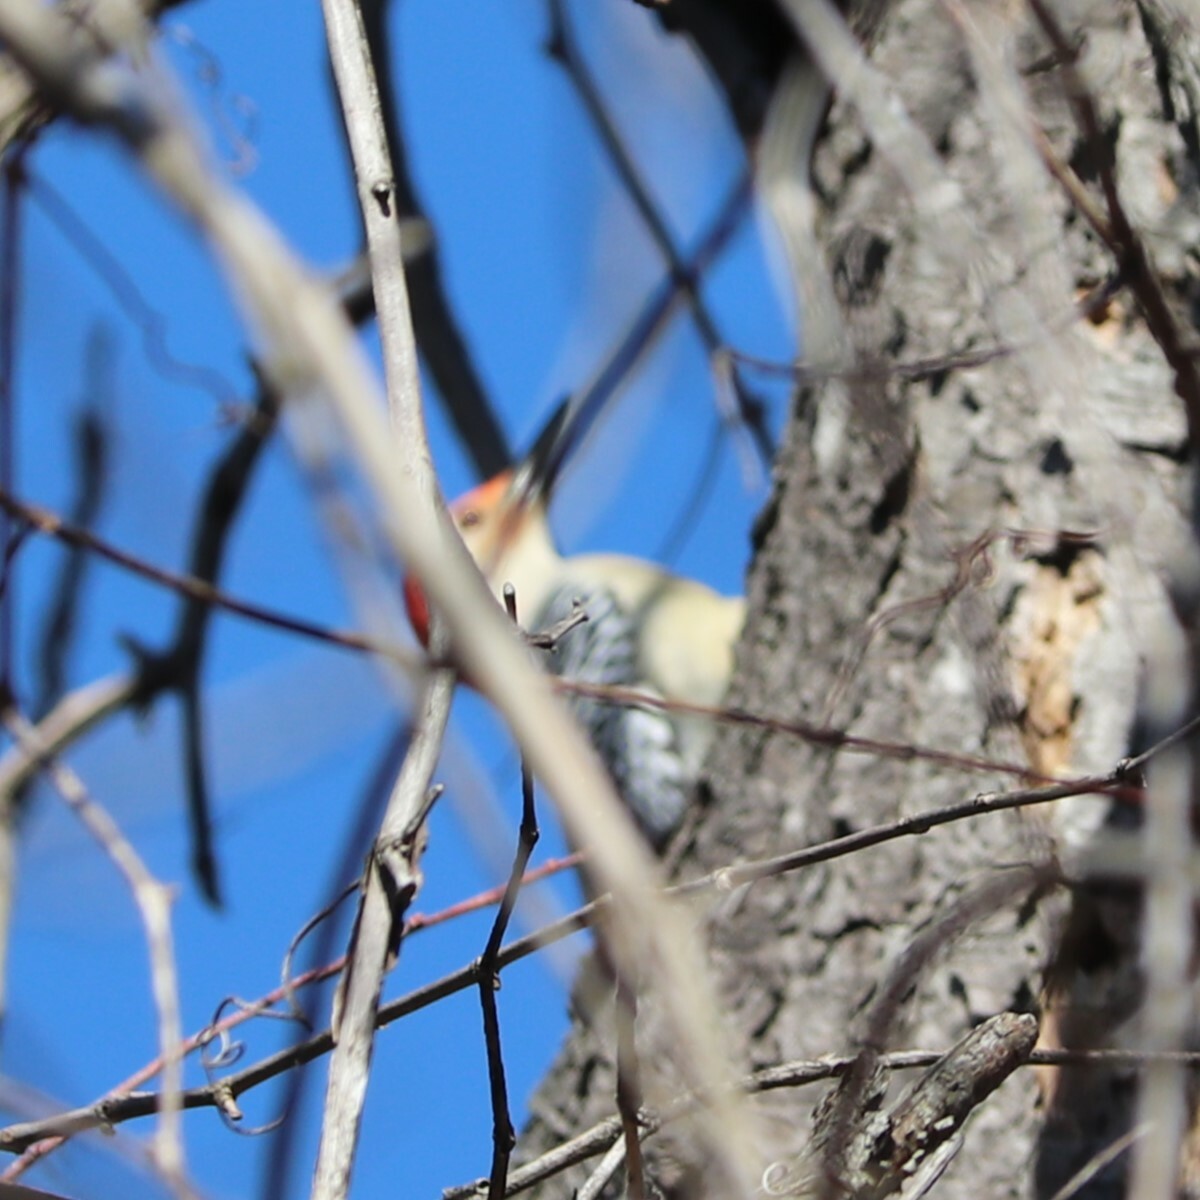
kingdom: Animalia
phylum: Chordata
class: Aves
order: Piciformes
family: Picidae
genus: Melanerpes
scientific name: Melanerpes carolinus
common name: Red-bellied woodpecker
